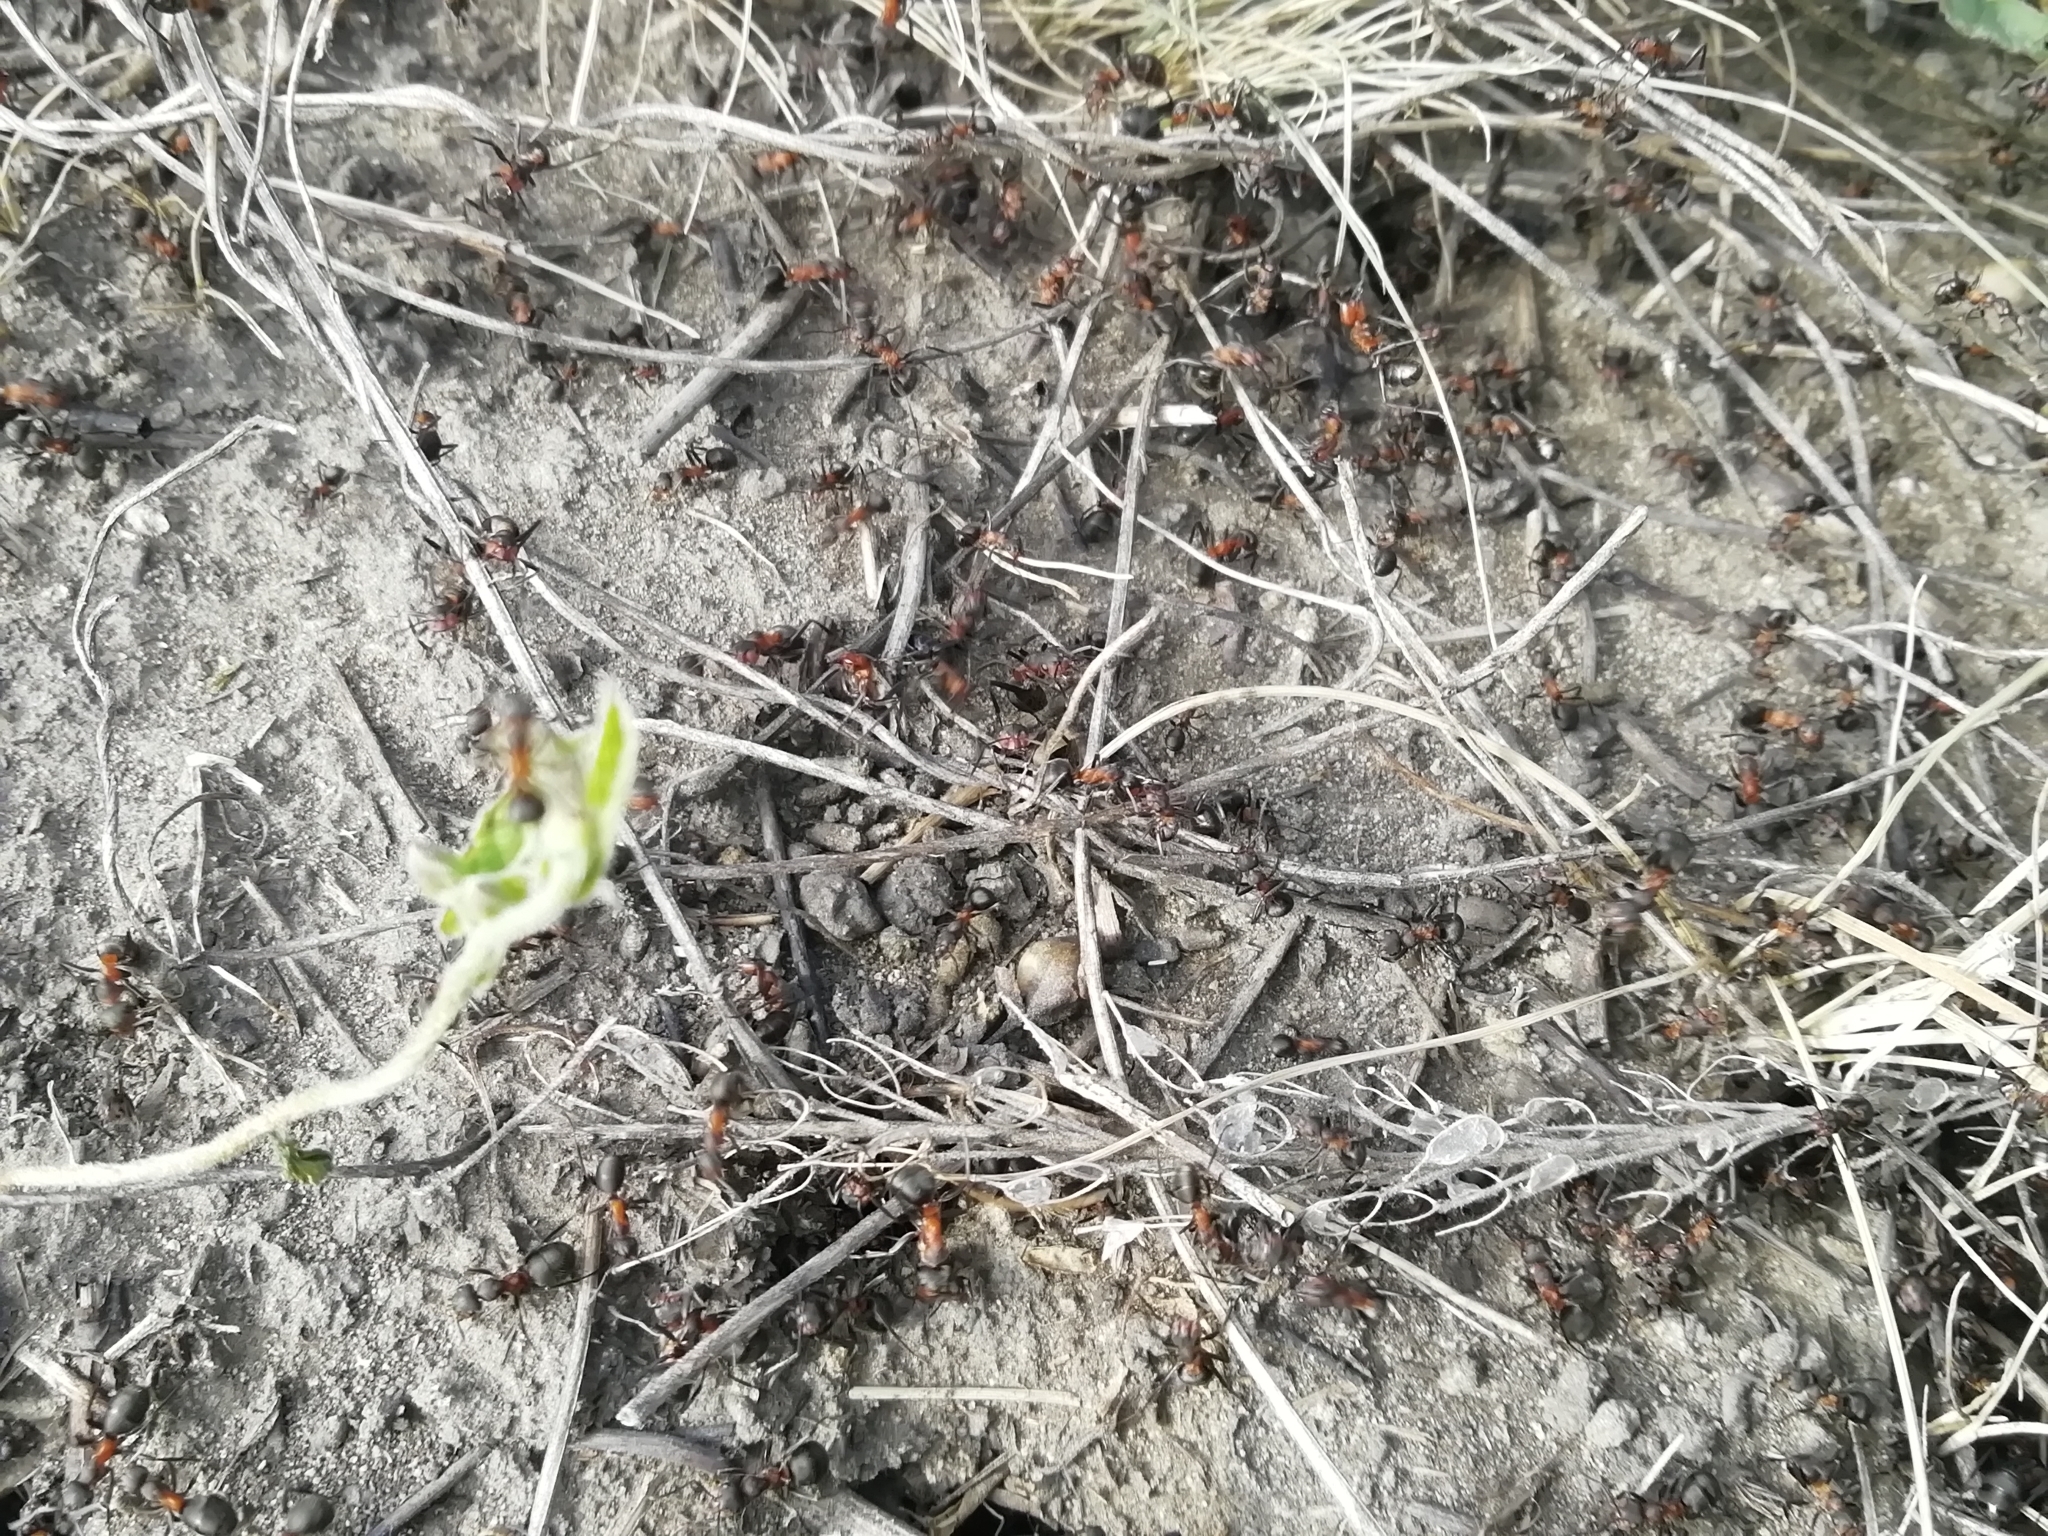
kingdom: Animalia
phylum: Arthropoda
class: Insecta
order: Hymenoptera
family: Formicidae
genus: Formica
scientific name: Formica pratensis
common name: European red wood ant
